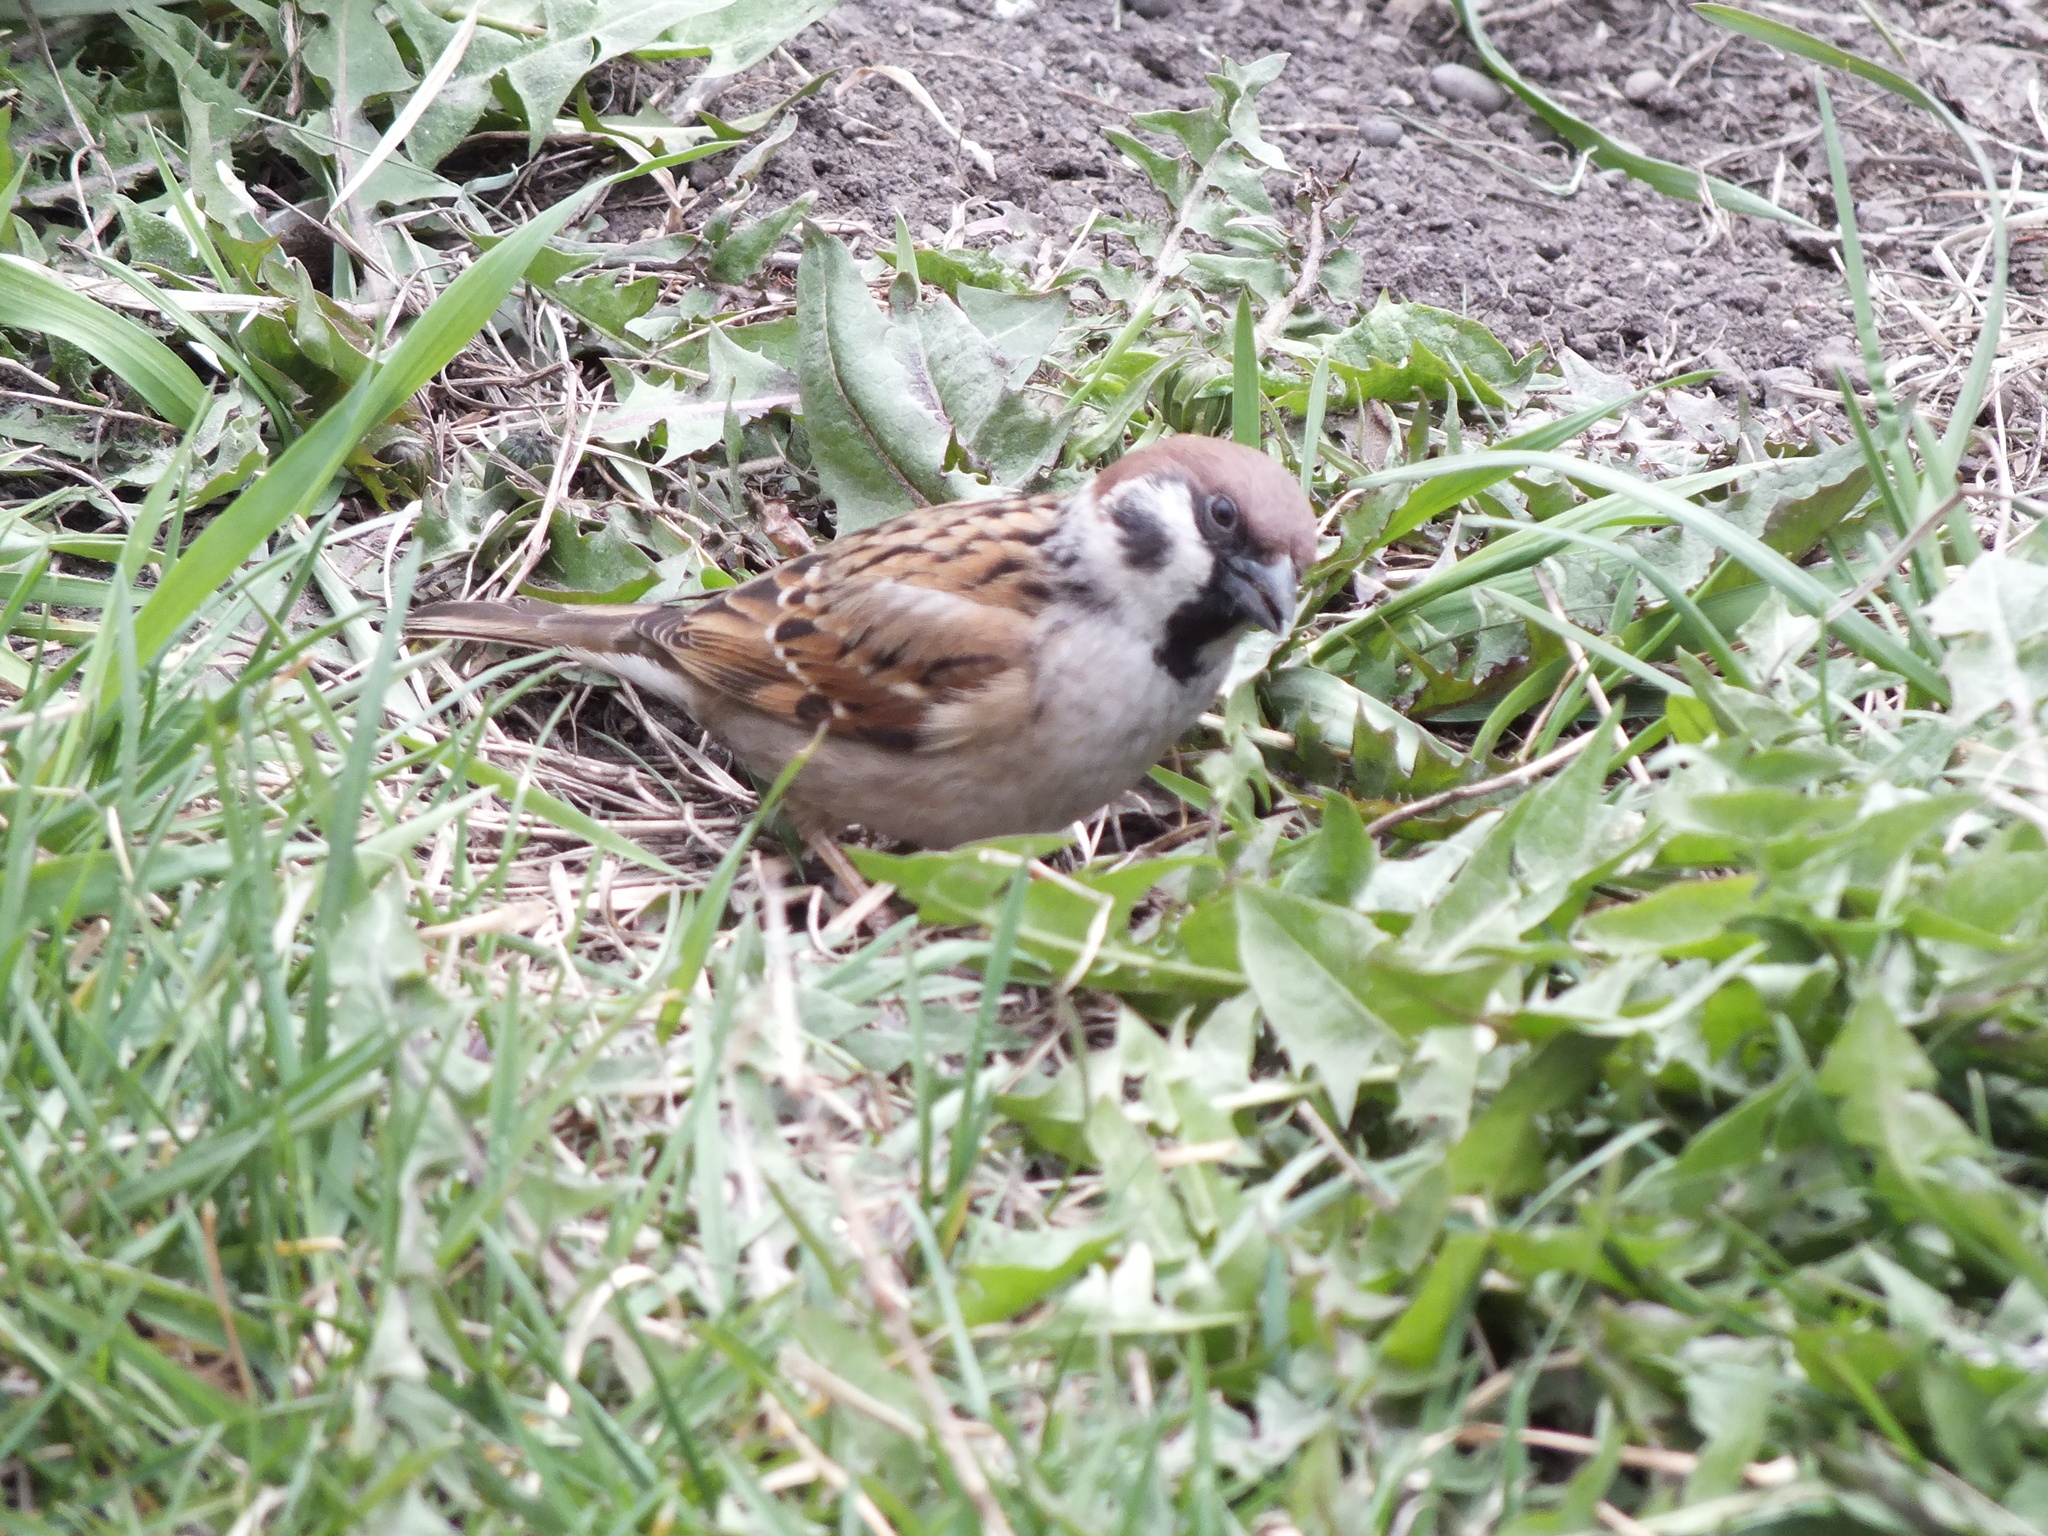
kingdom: Animalia
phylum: Chordata
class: Aves
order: Passeriformes
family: Passeridae
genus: Passer
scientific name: Passer montanus
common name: Eurasian tree sparrow
